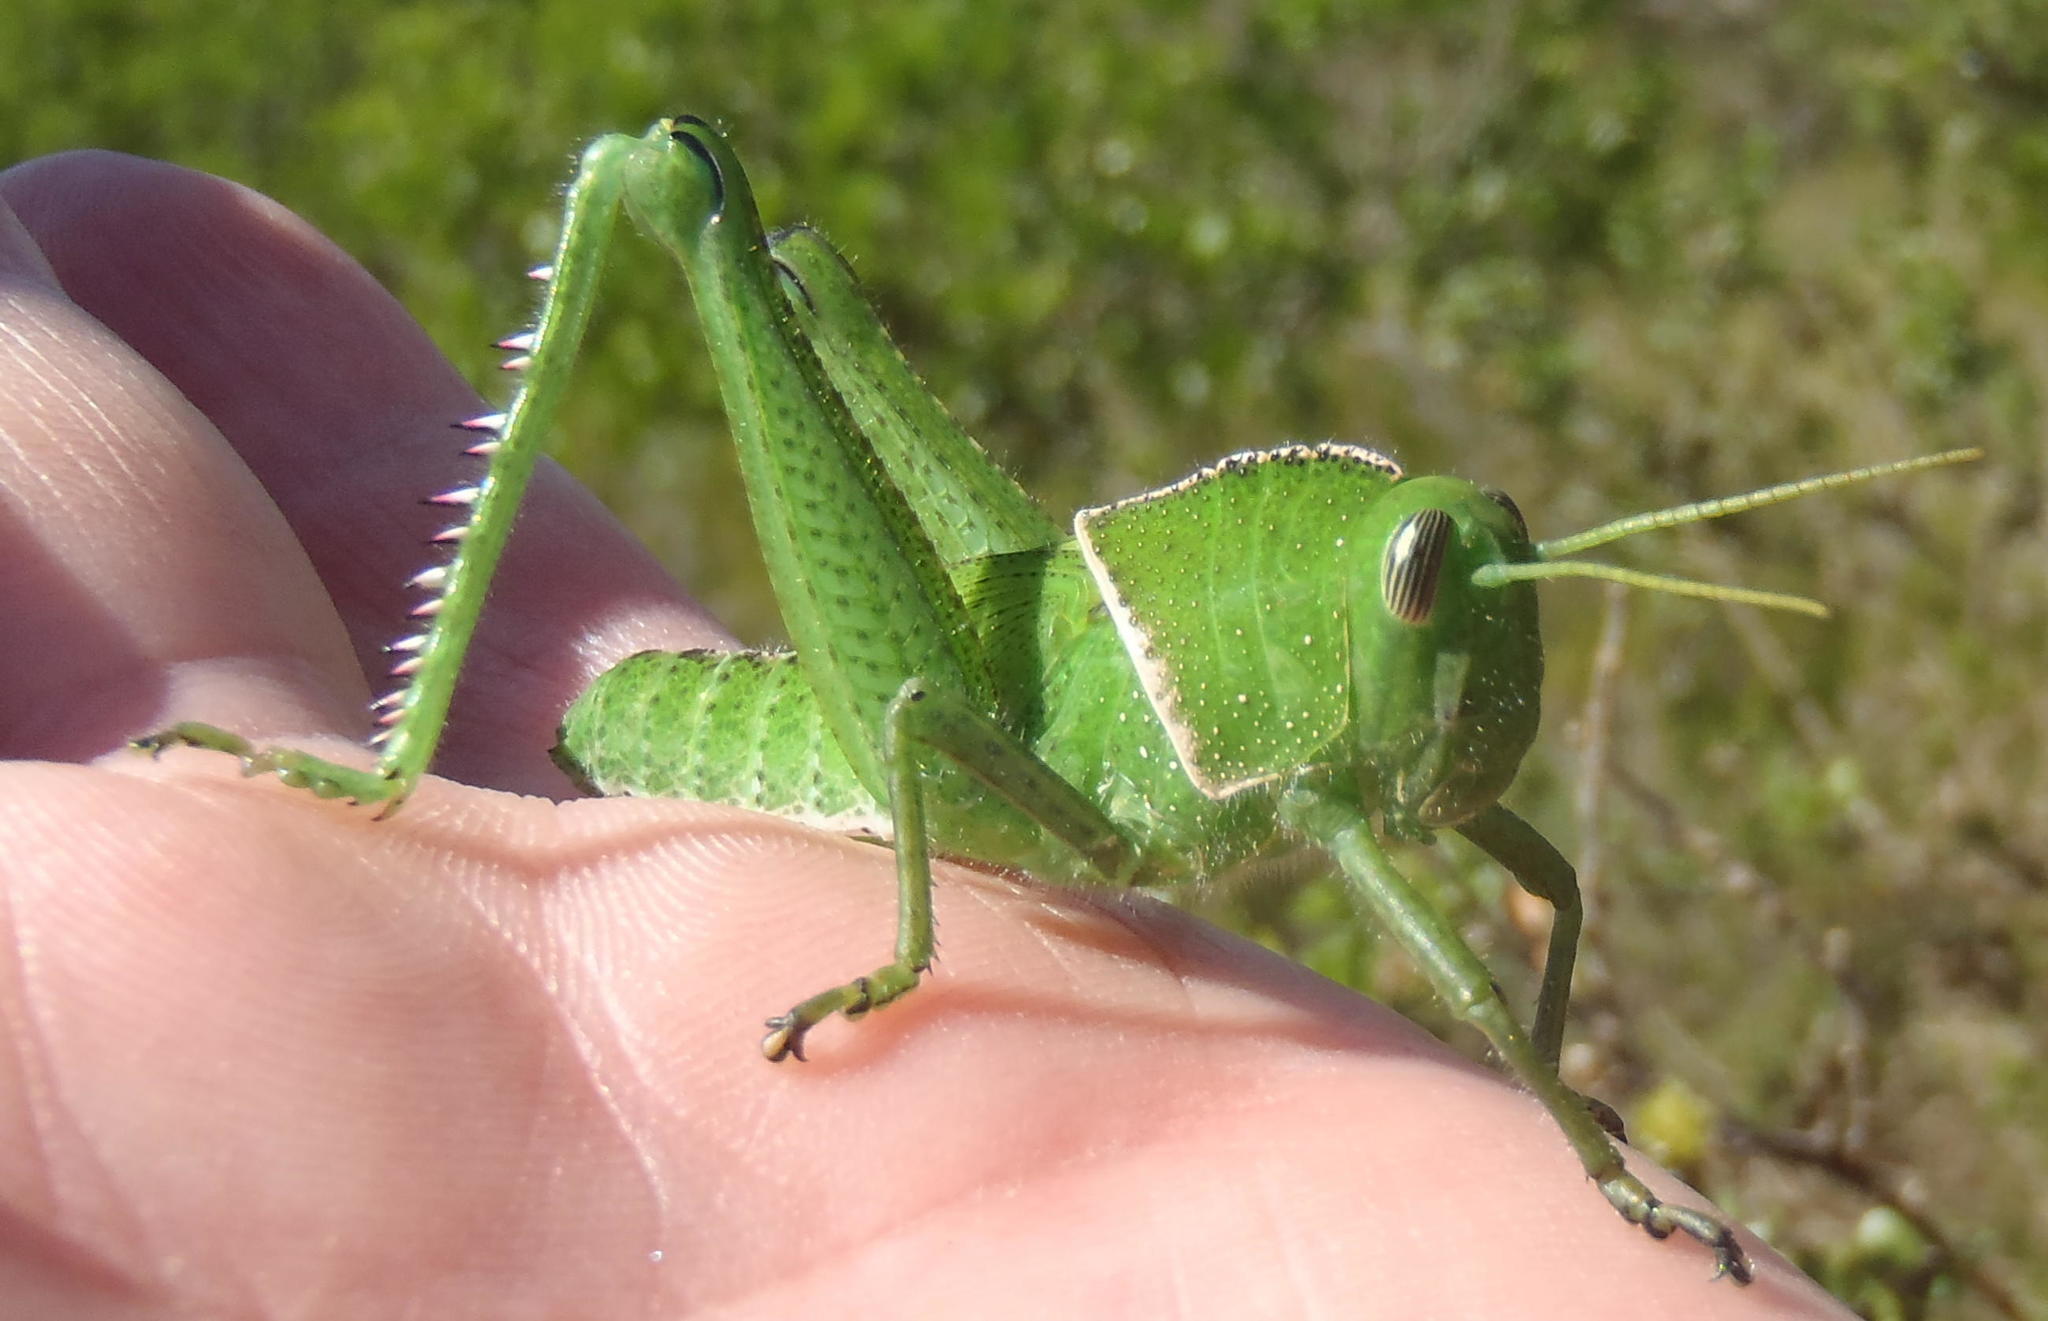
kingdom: Animalia
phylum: Arthropoda
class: Insecta
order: Orthoptera
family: Acrididae
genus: Acanthacris
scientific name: Acanthacris ruficornis
